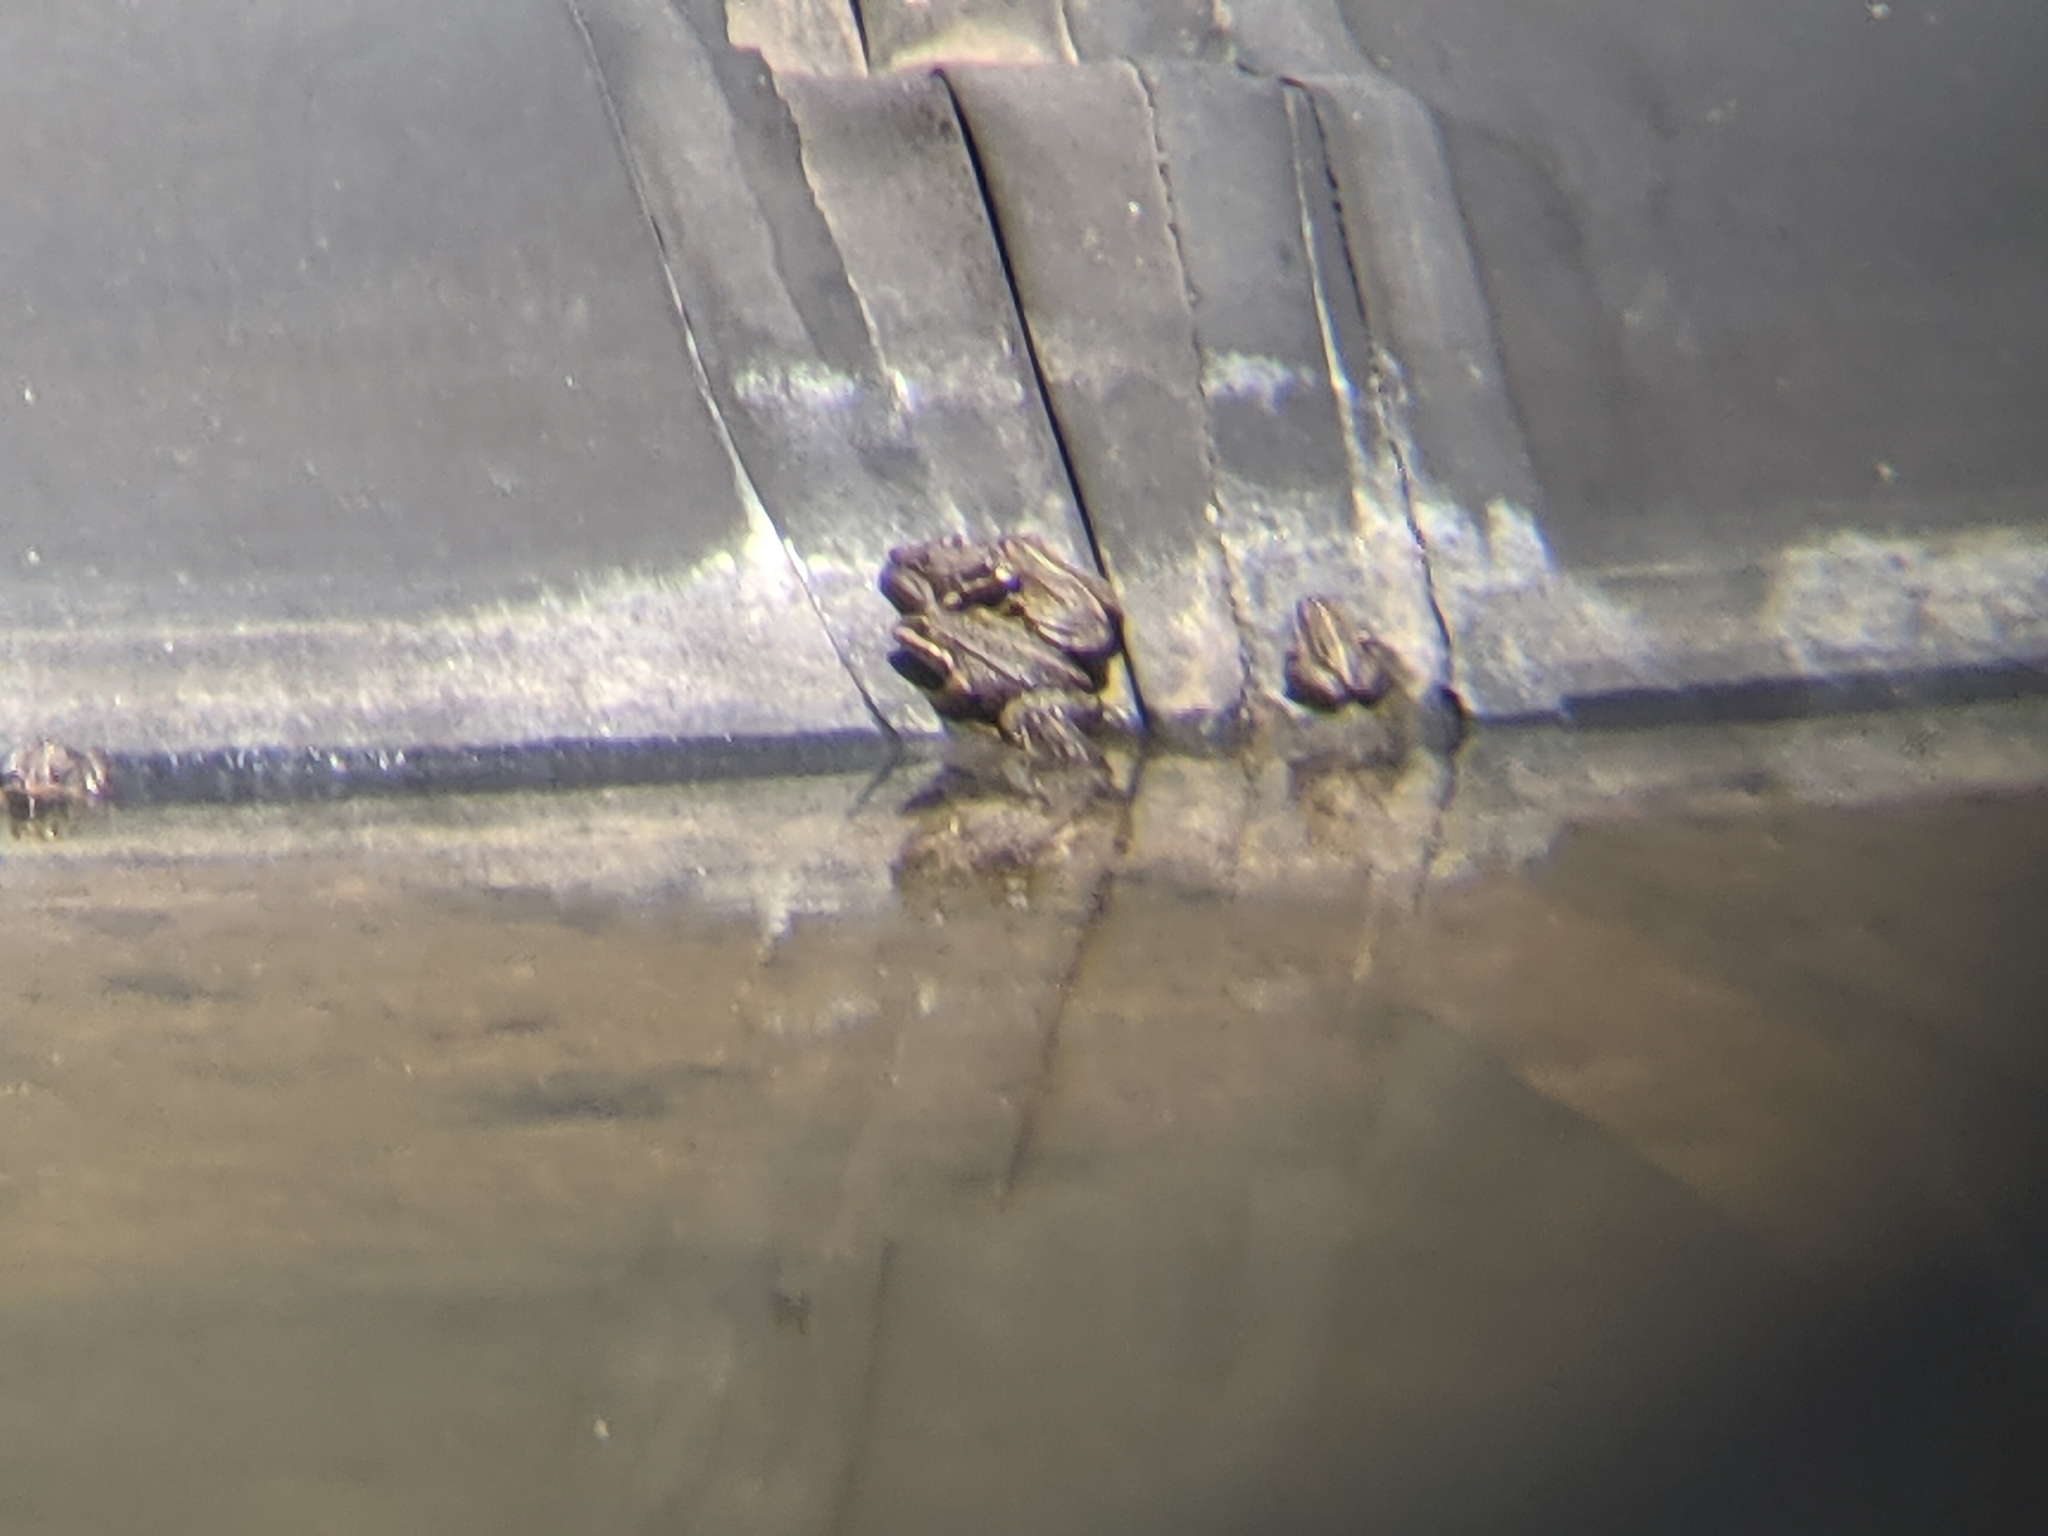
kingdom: Animalia
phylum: Chordata
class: Amphibia
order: Anura
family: Ranidae
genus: Pelophylax
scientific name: Pelophylax perezi
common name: Perez's frog
